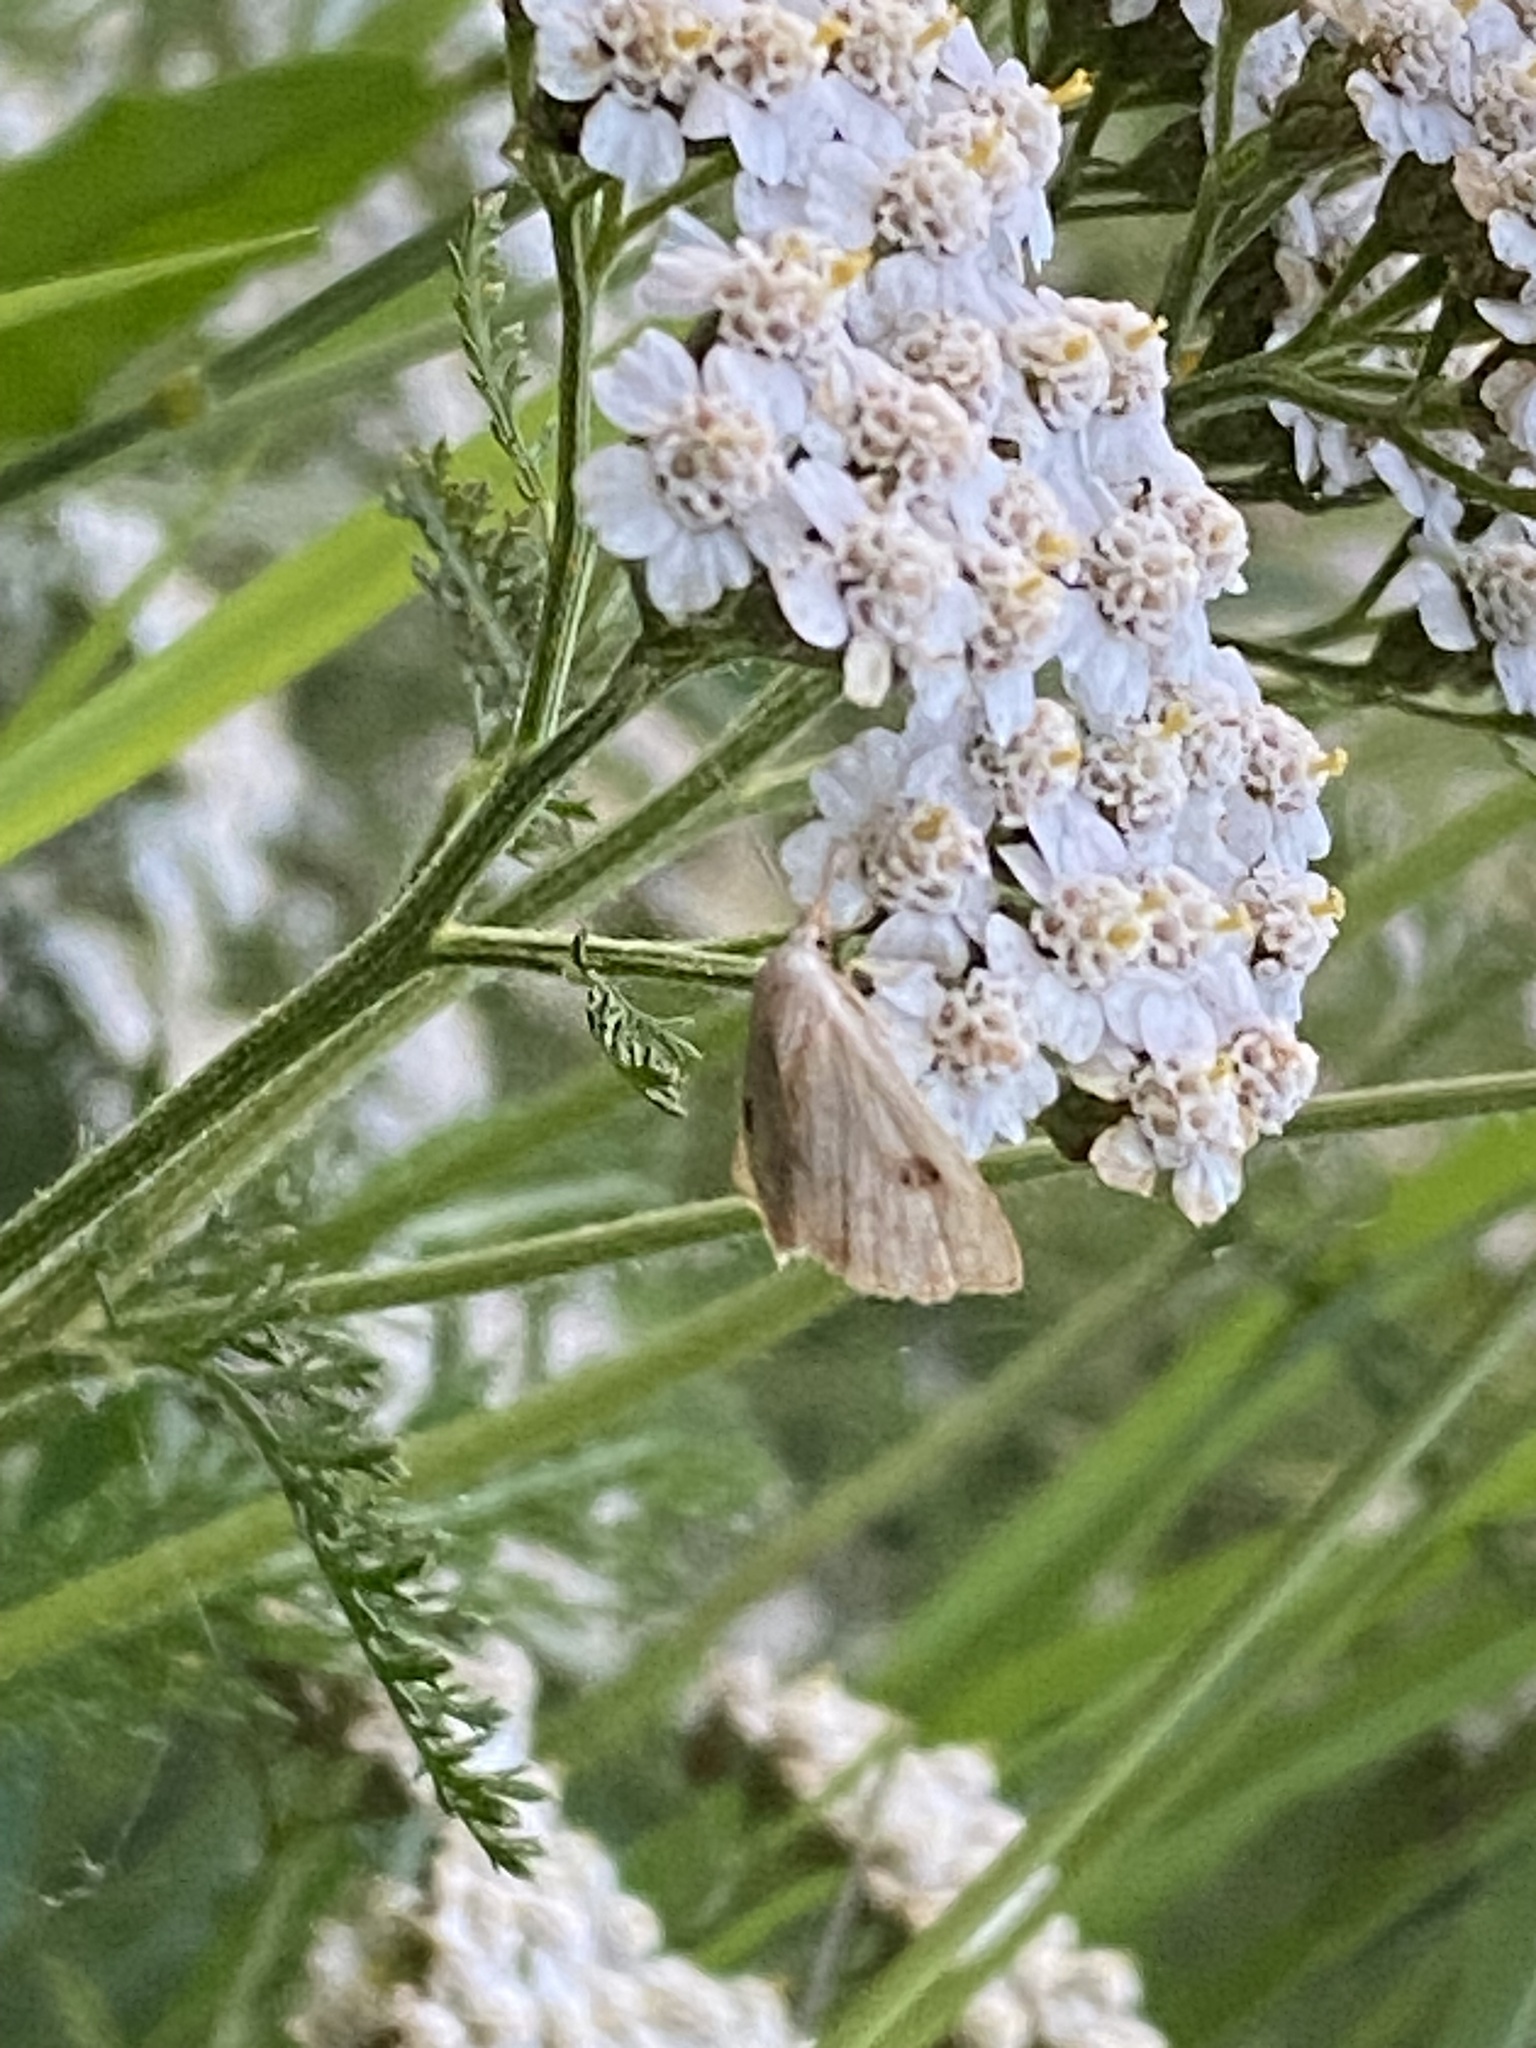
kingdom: Animalia
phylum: Arthropoda
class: Insecta
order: Lepidoptera
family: Erebidae
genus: Rivula
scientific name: Rivula sericealis
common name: Straw dot
